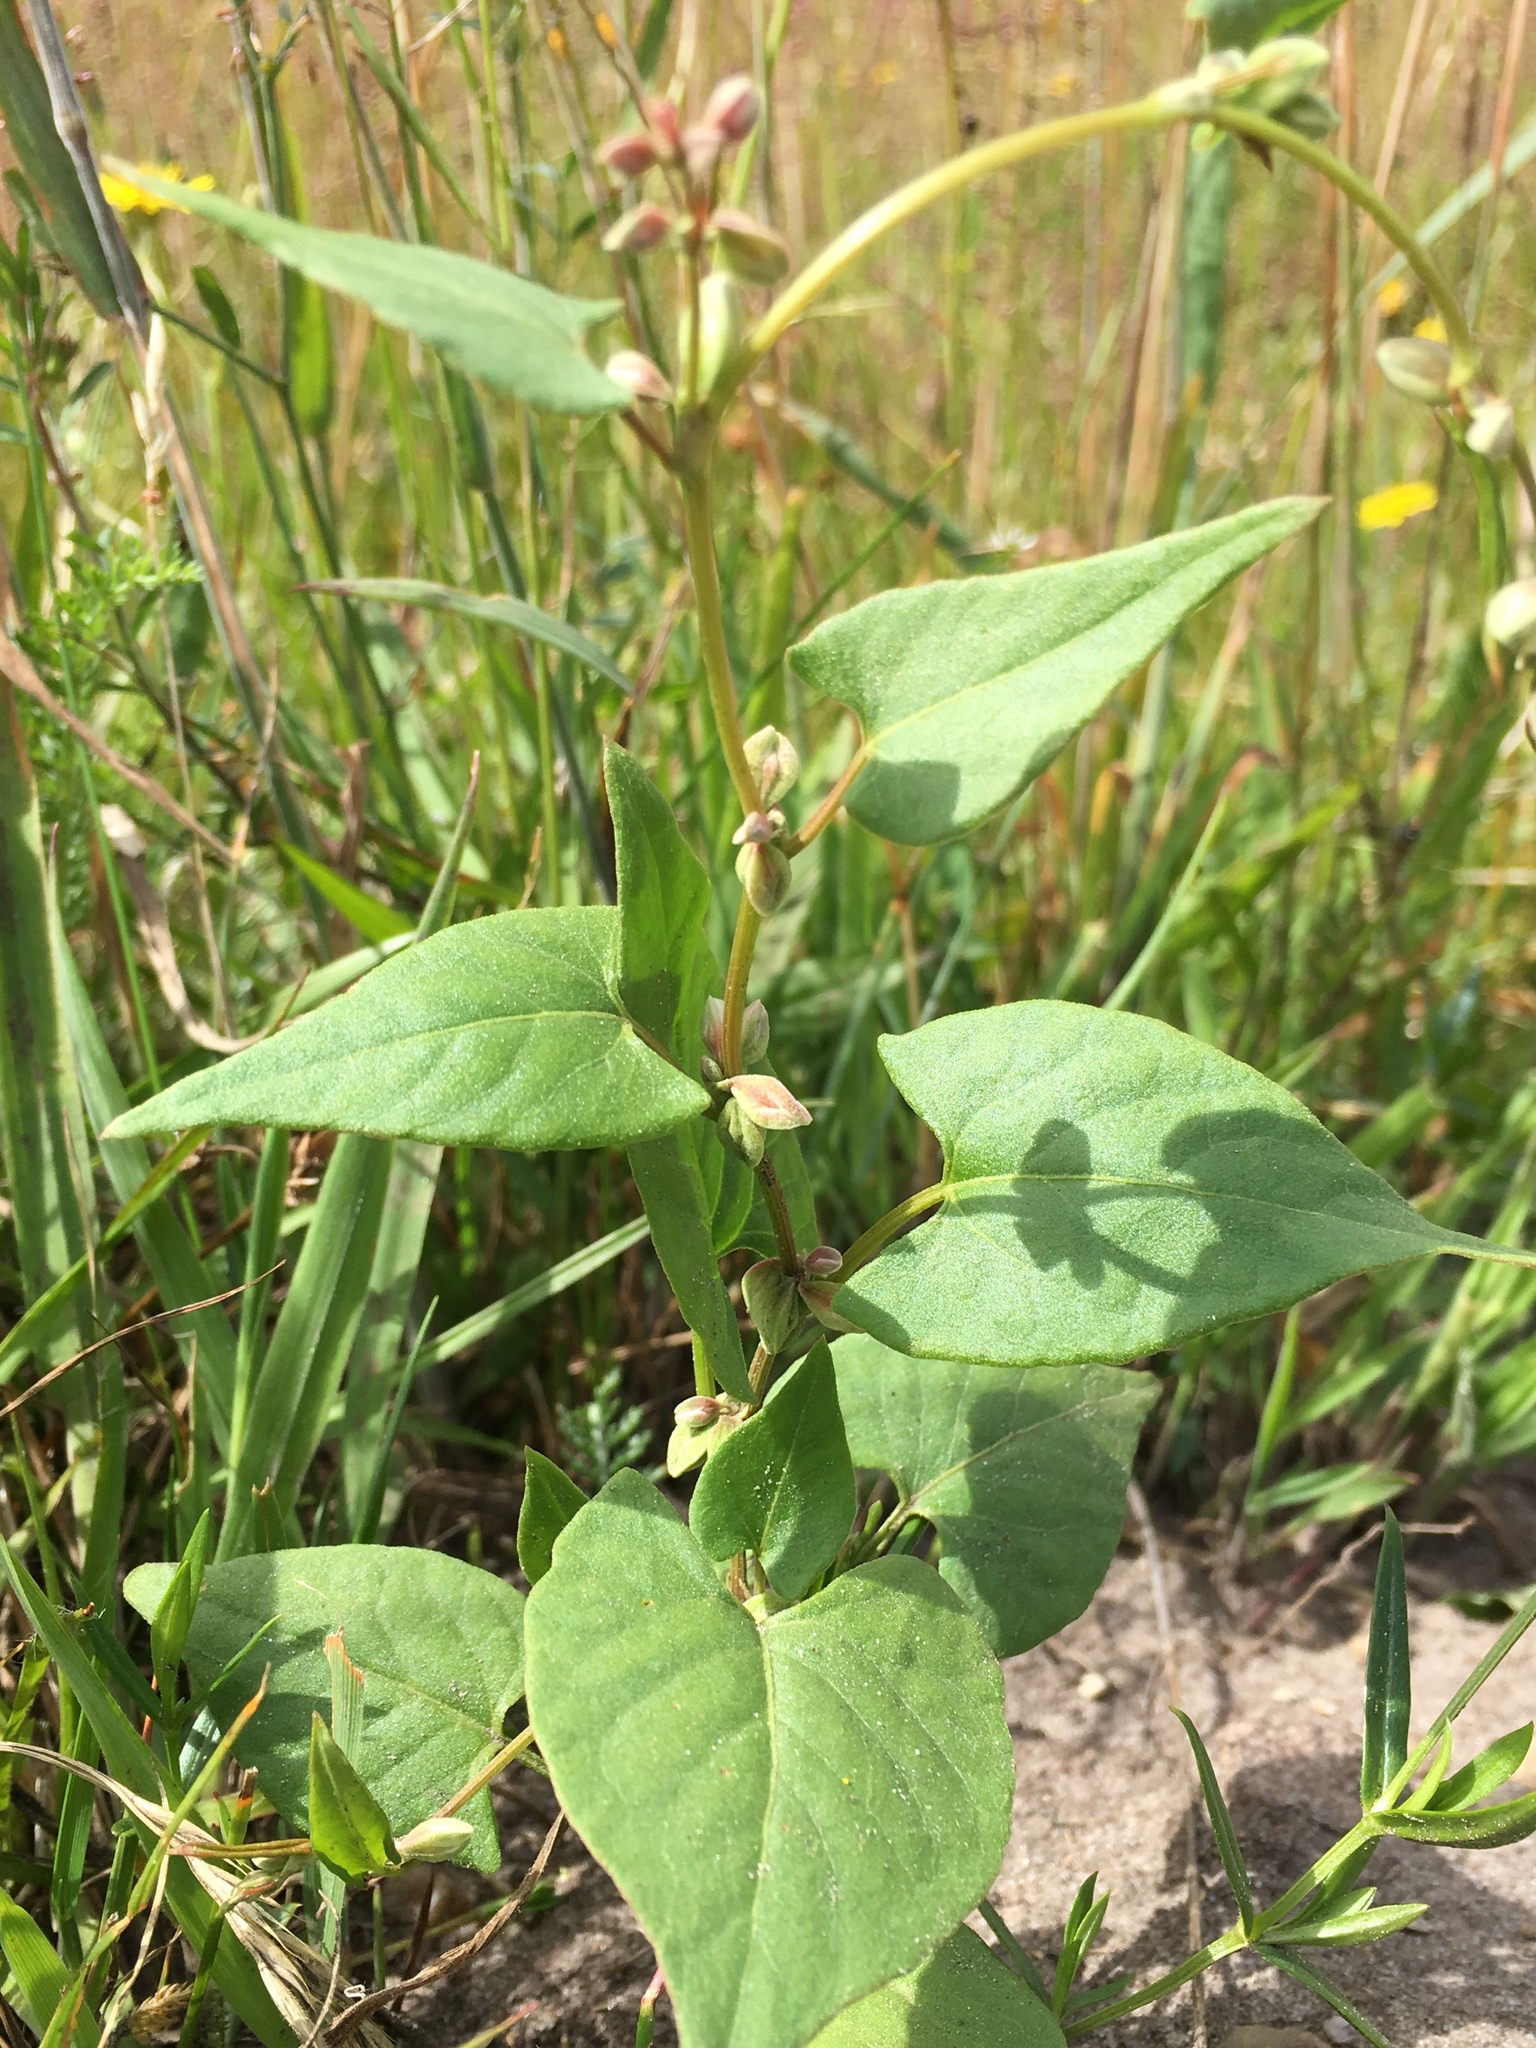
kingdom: Plantae
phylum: Tracheophyta
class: Magnoliopsida
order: Caryophyllales
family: Polygonaceae
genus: Fallopia
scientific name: Fallopia convolvulus
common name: Black bindweed
